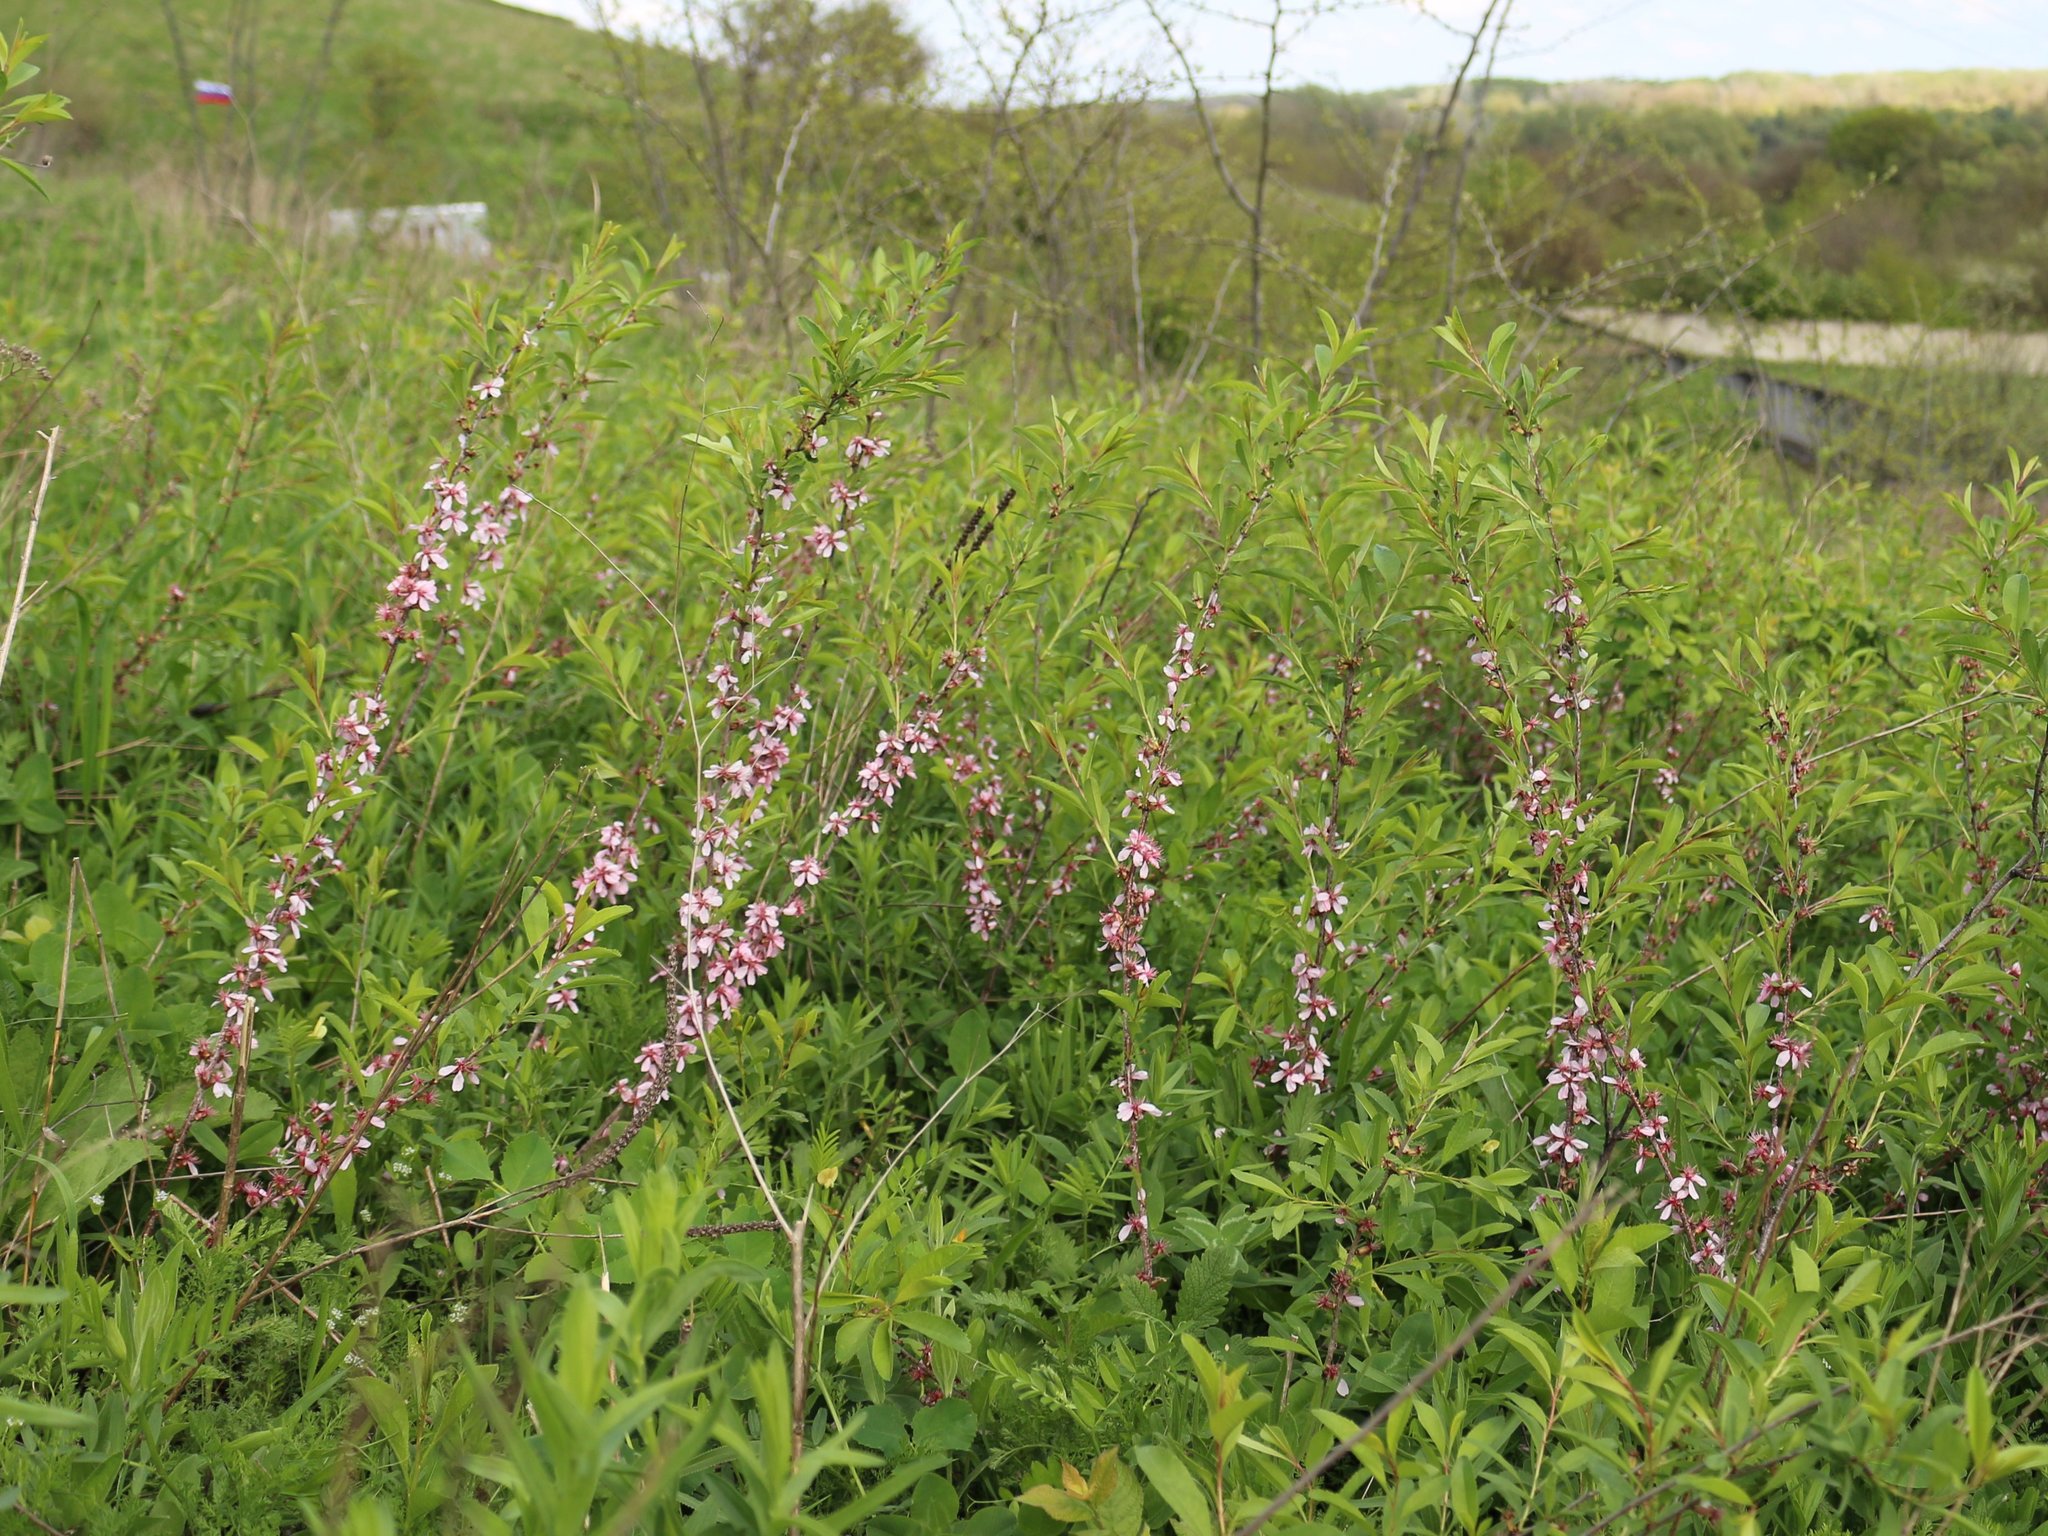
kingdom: Plantae
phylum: Tracheophyta
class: Magnoliopsida
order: Rosales
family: Rosaceae
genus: Prunus
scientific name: Prunus tenella
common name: Dwarf russian almond
